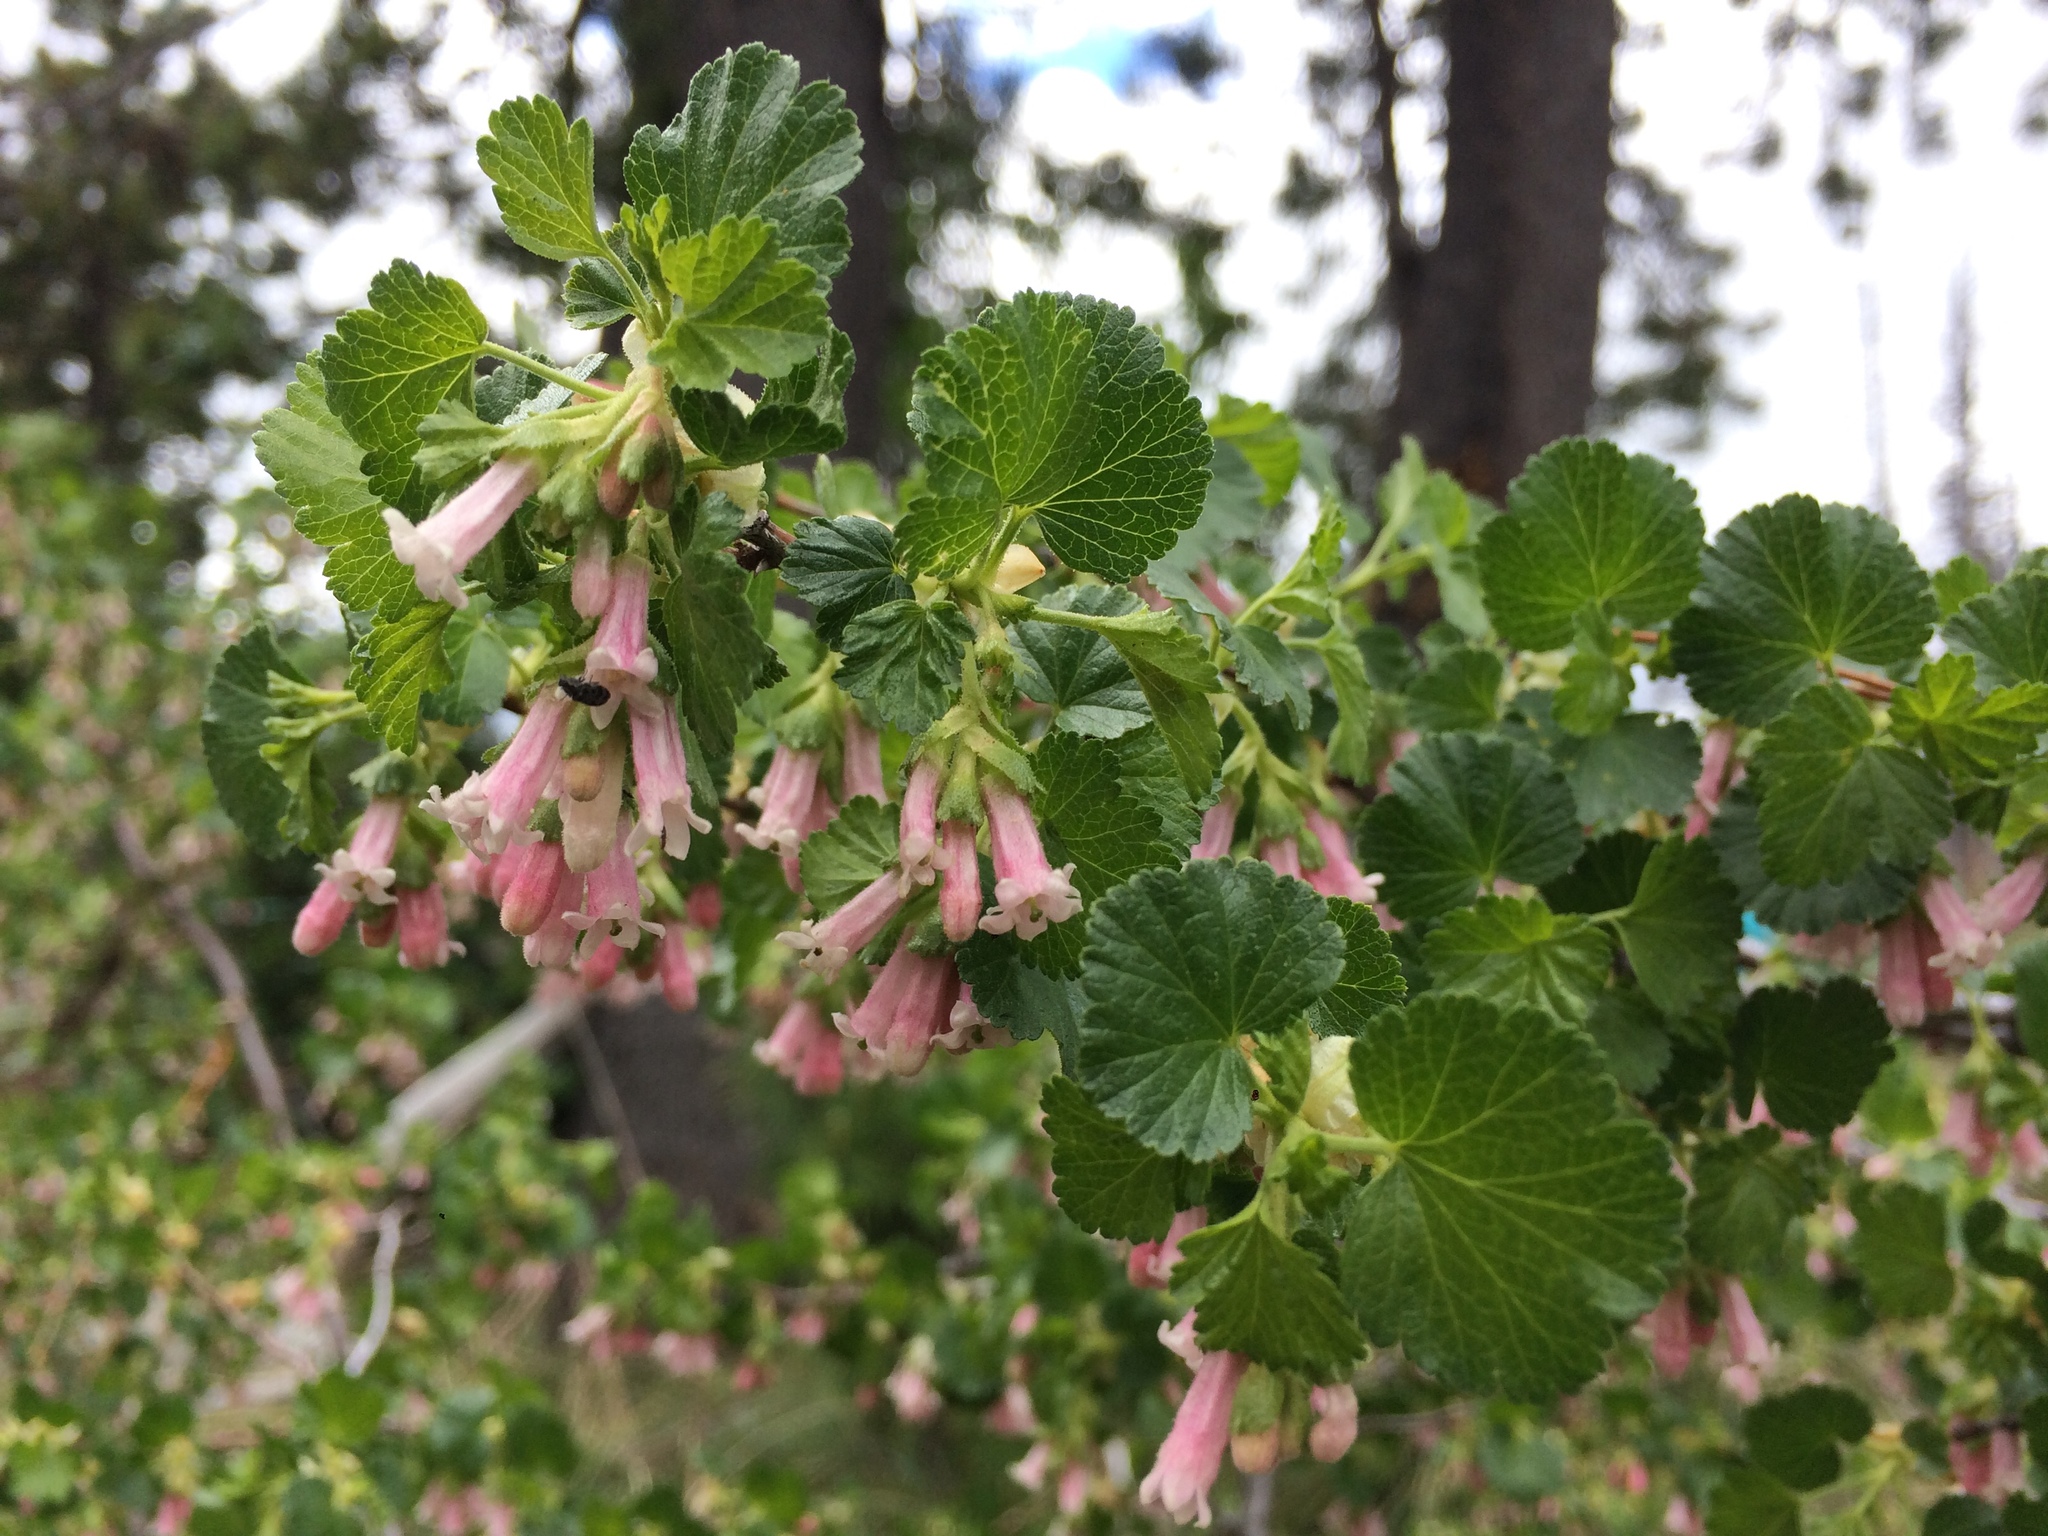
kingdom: Plantae
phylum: Tracheophyta
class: Magnoliopsida
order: Saxifragales
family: Grossulariaceae
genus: Ribes
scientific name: Ribes cereum
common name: Wax currant
